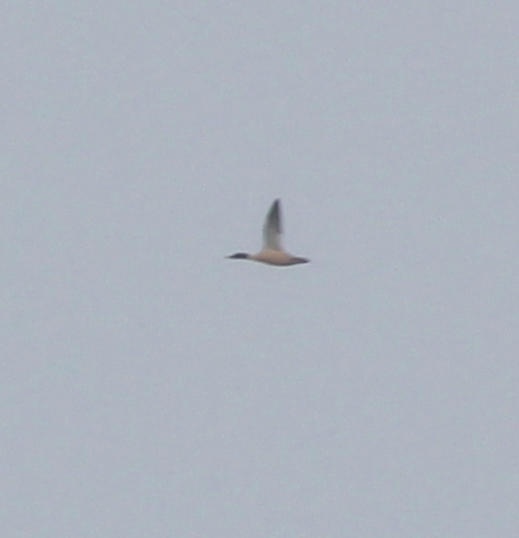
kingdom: Animalia
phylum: Chordata
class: Aves
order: Anseriformes
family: Anatidae
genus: Mergus
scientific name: Mergus merganser
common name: Common merganser
